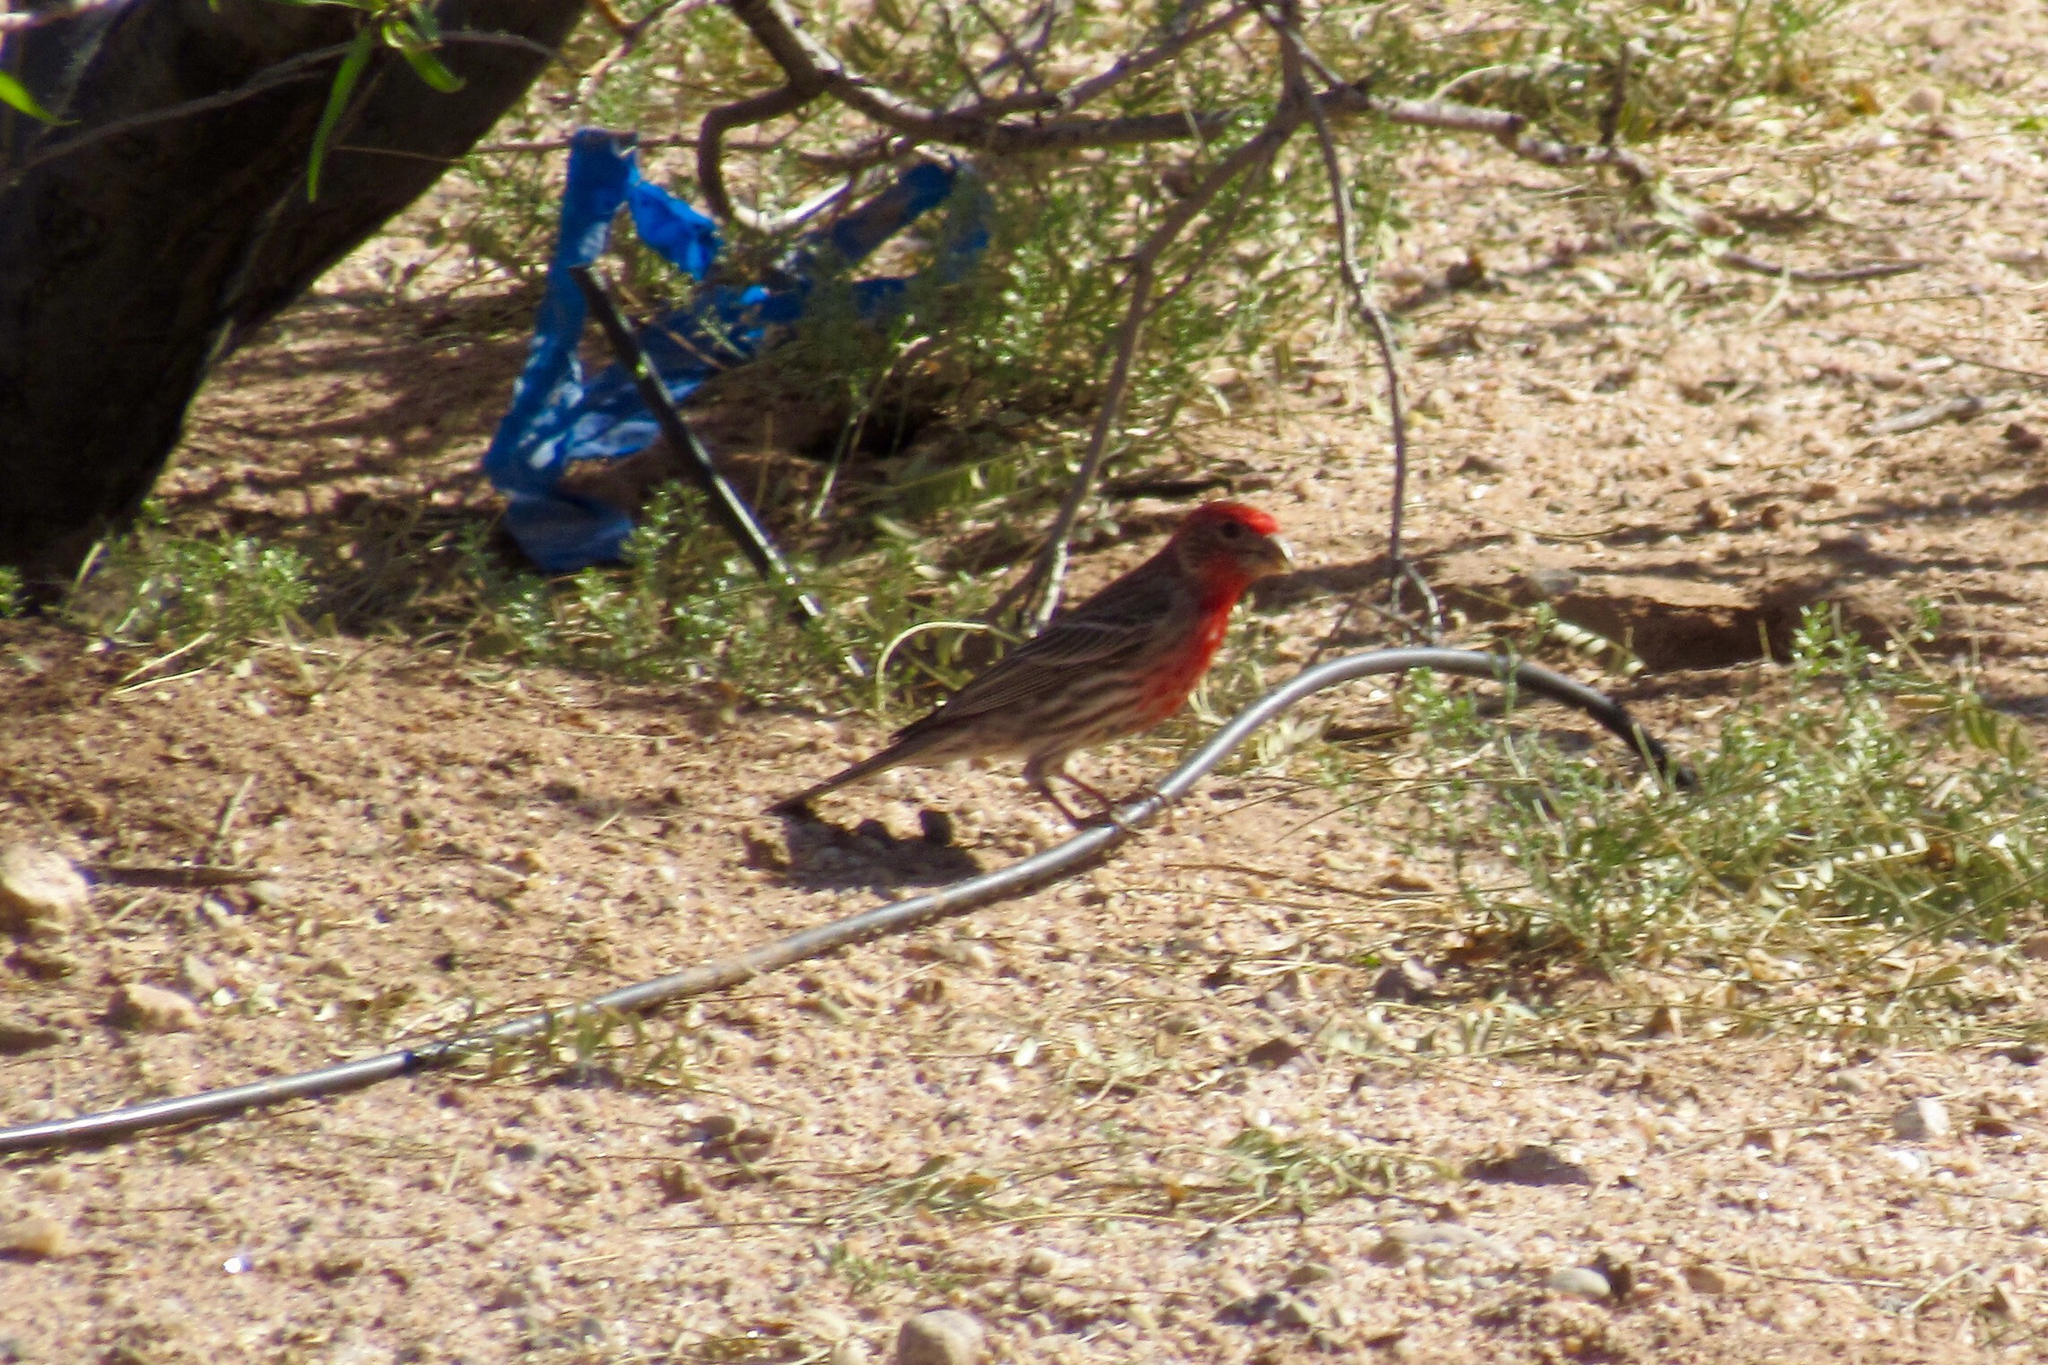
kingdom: Animalia
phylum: Chordata
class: Aves
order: Passeriformes
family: Fringillidae
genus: Haemorhous
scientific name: Haemorhous mexicanus
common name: House finch
